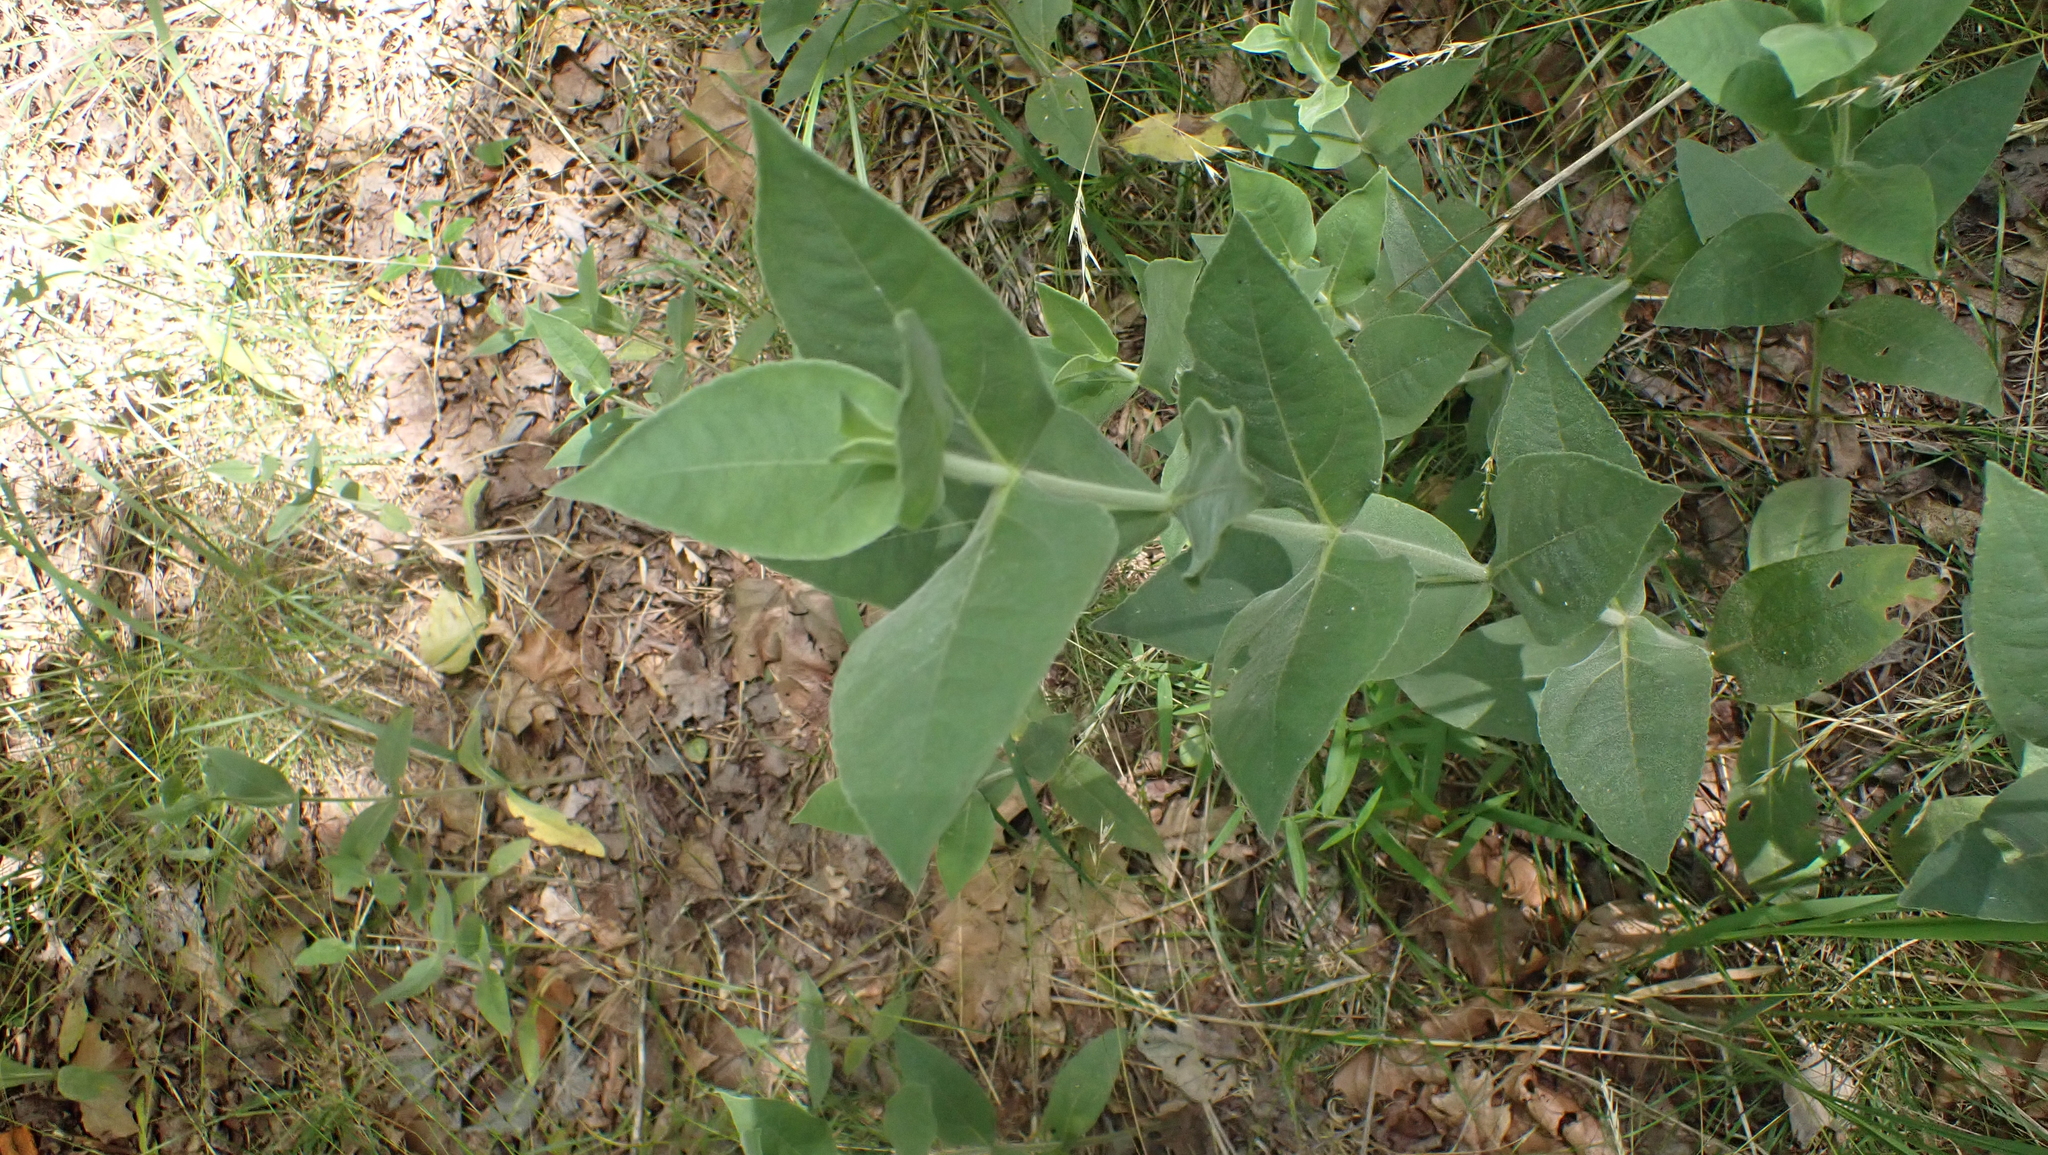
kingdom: Plantae
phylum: Tracheophyta
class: Magnoliopsida
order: Asterales
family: Asteraceae
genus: Helianthus
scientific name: Helianthus mollis
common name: Ashy sunflower
